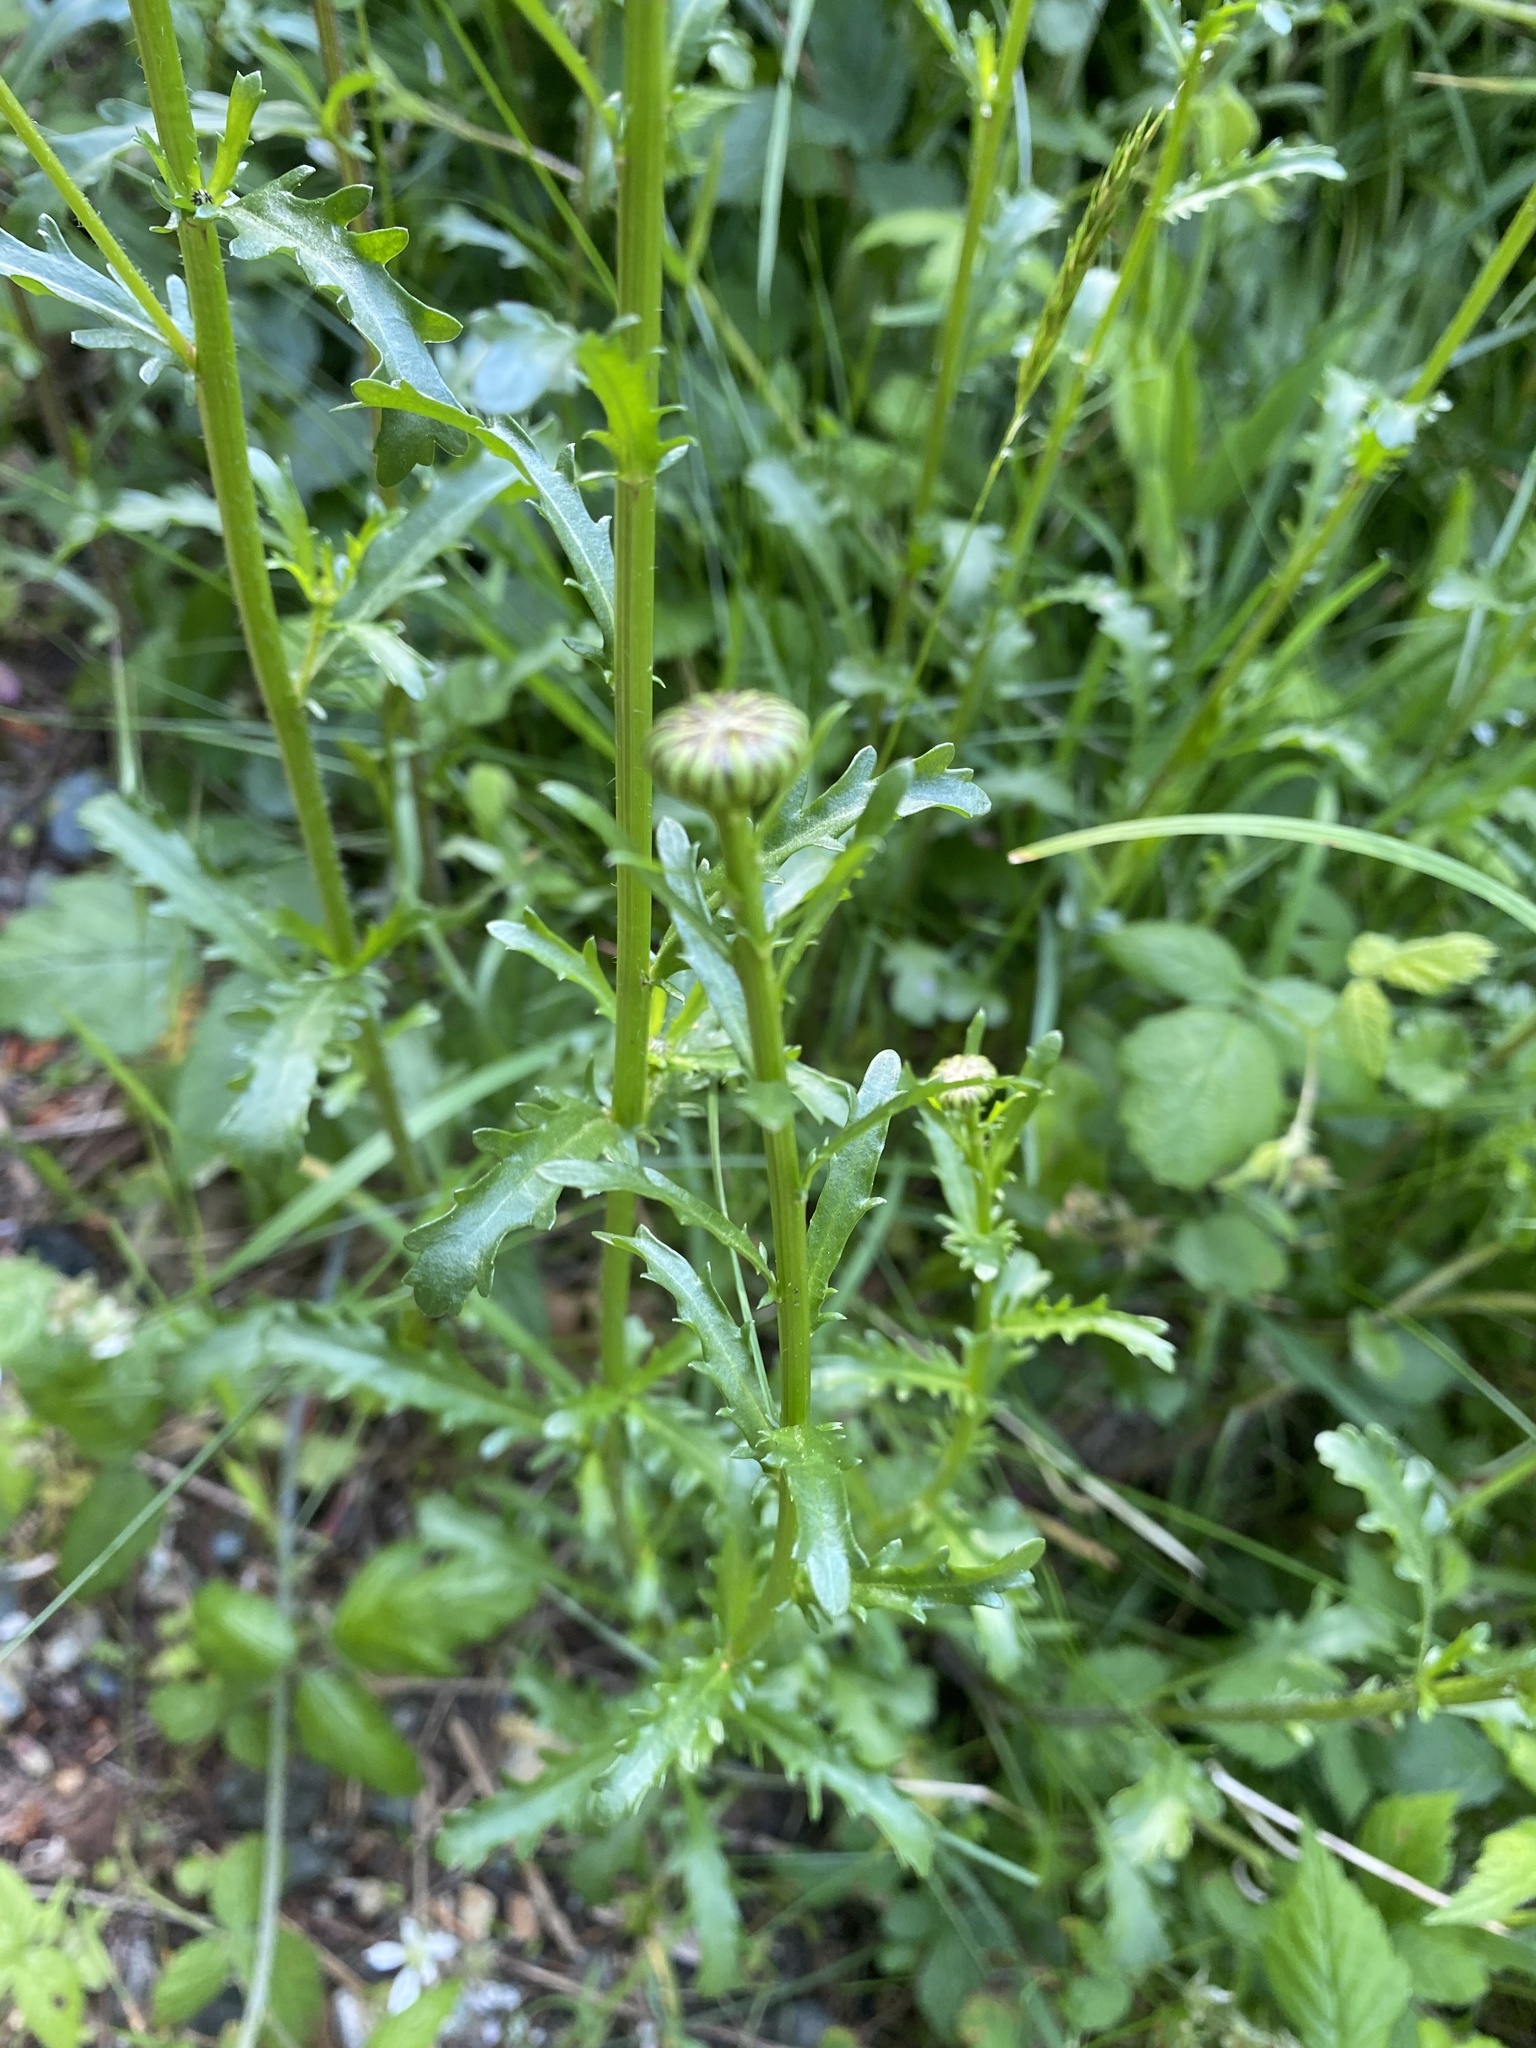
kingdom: Plantae
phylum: Tracheophyta
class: Magnoliopsida
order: Asterales
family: Asteraceae
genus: Leucanthemum
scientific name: Leucanthemum vulgare
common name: Oxeye daisy
